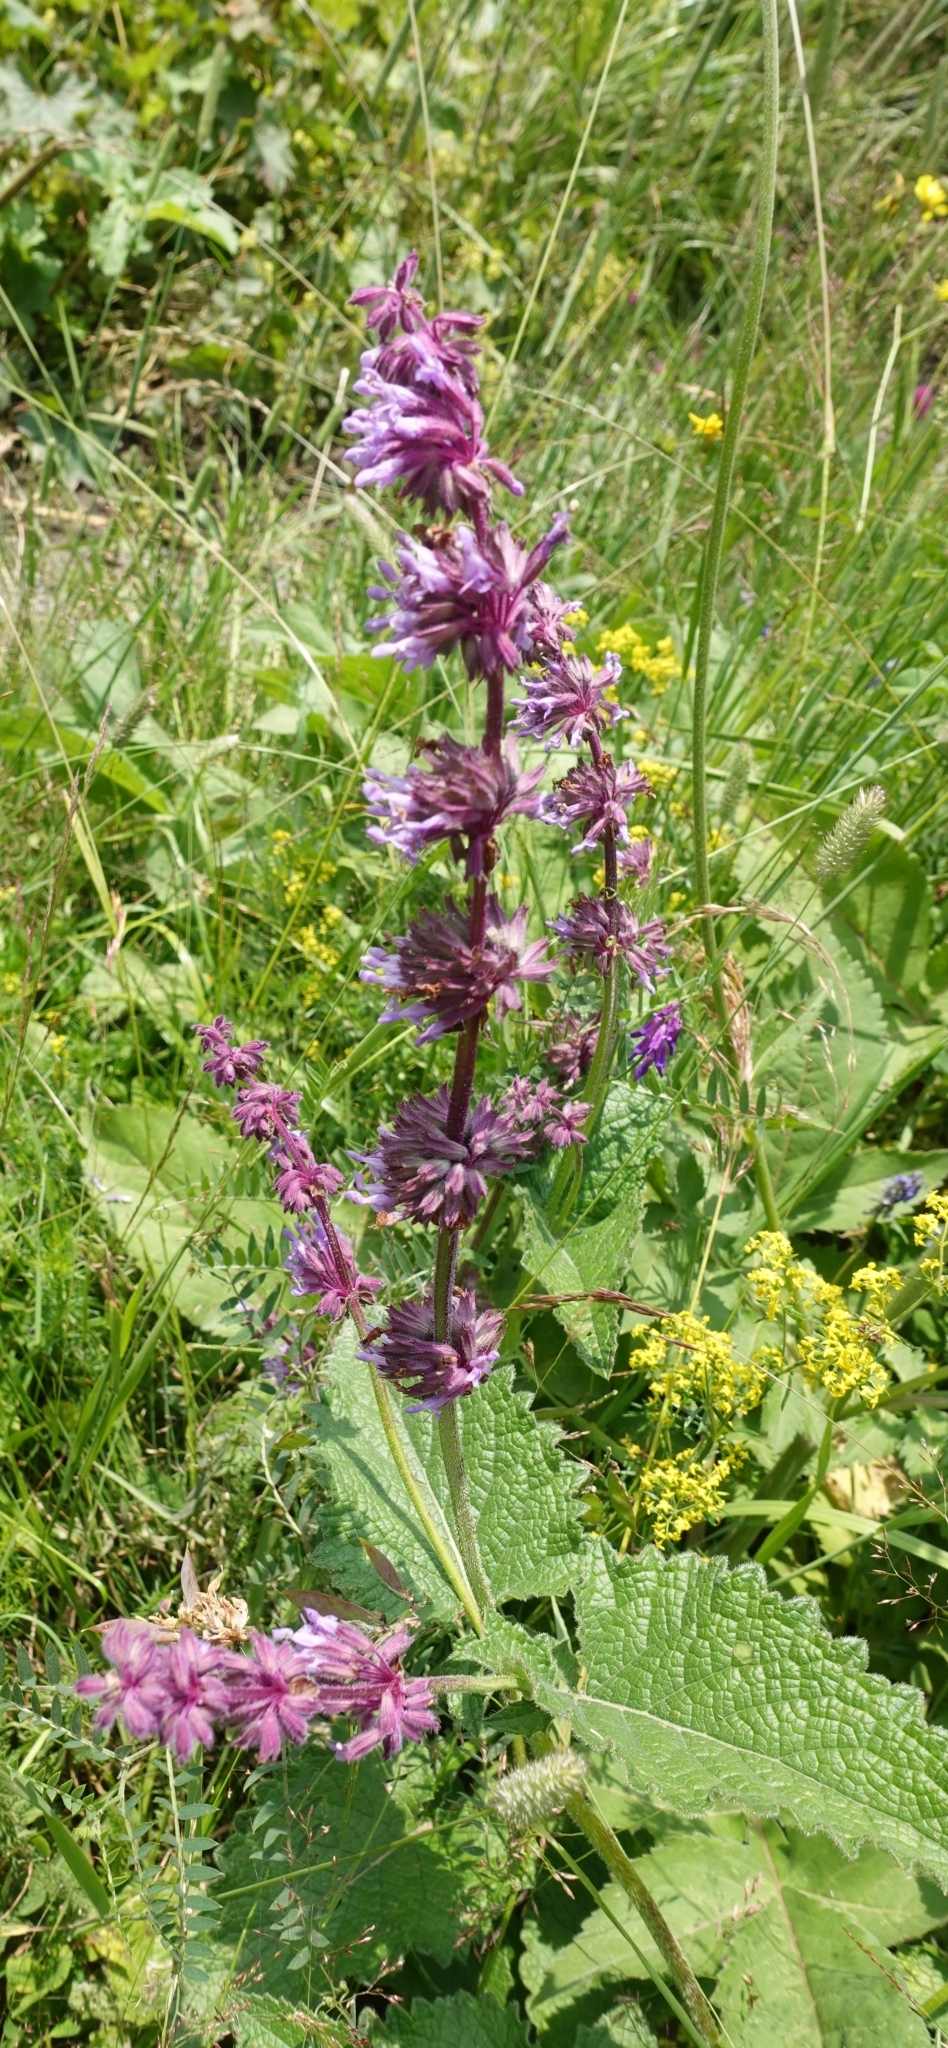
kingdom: Plantae
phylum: Tracheophyta
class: Magnoliopsida
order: Lamiales
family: Lamiaceae
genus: Salvia
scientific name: Salvia verticillata
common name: Whorled clary
